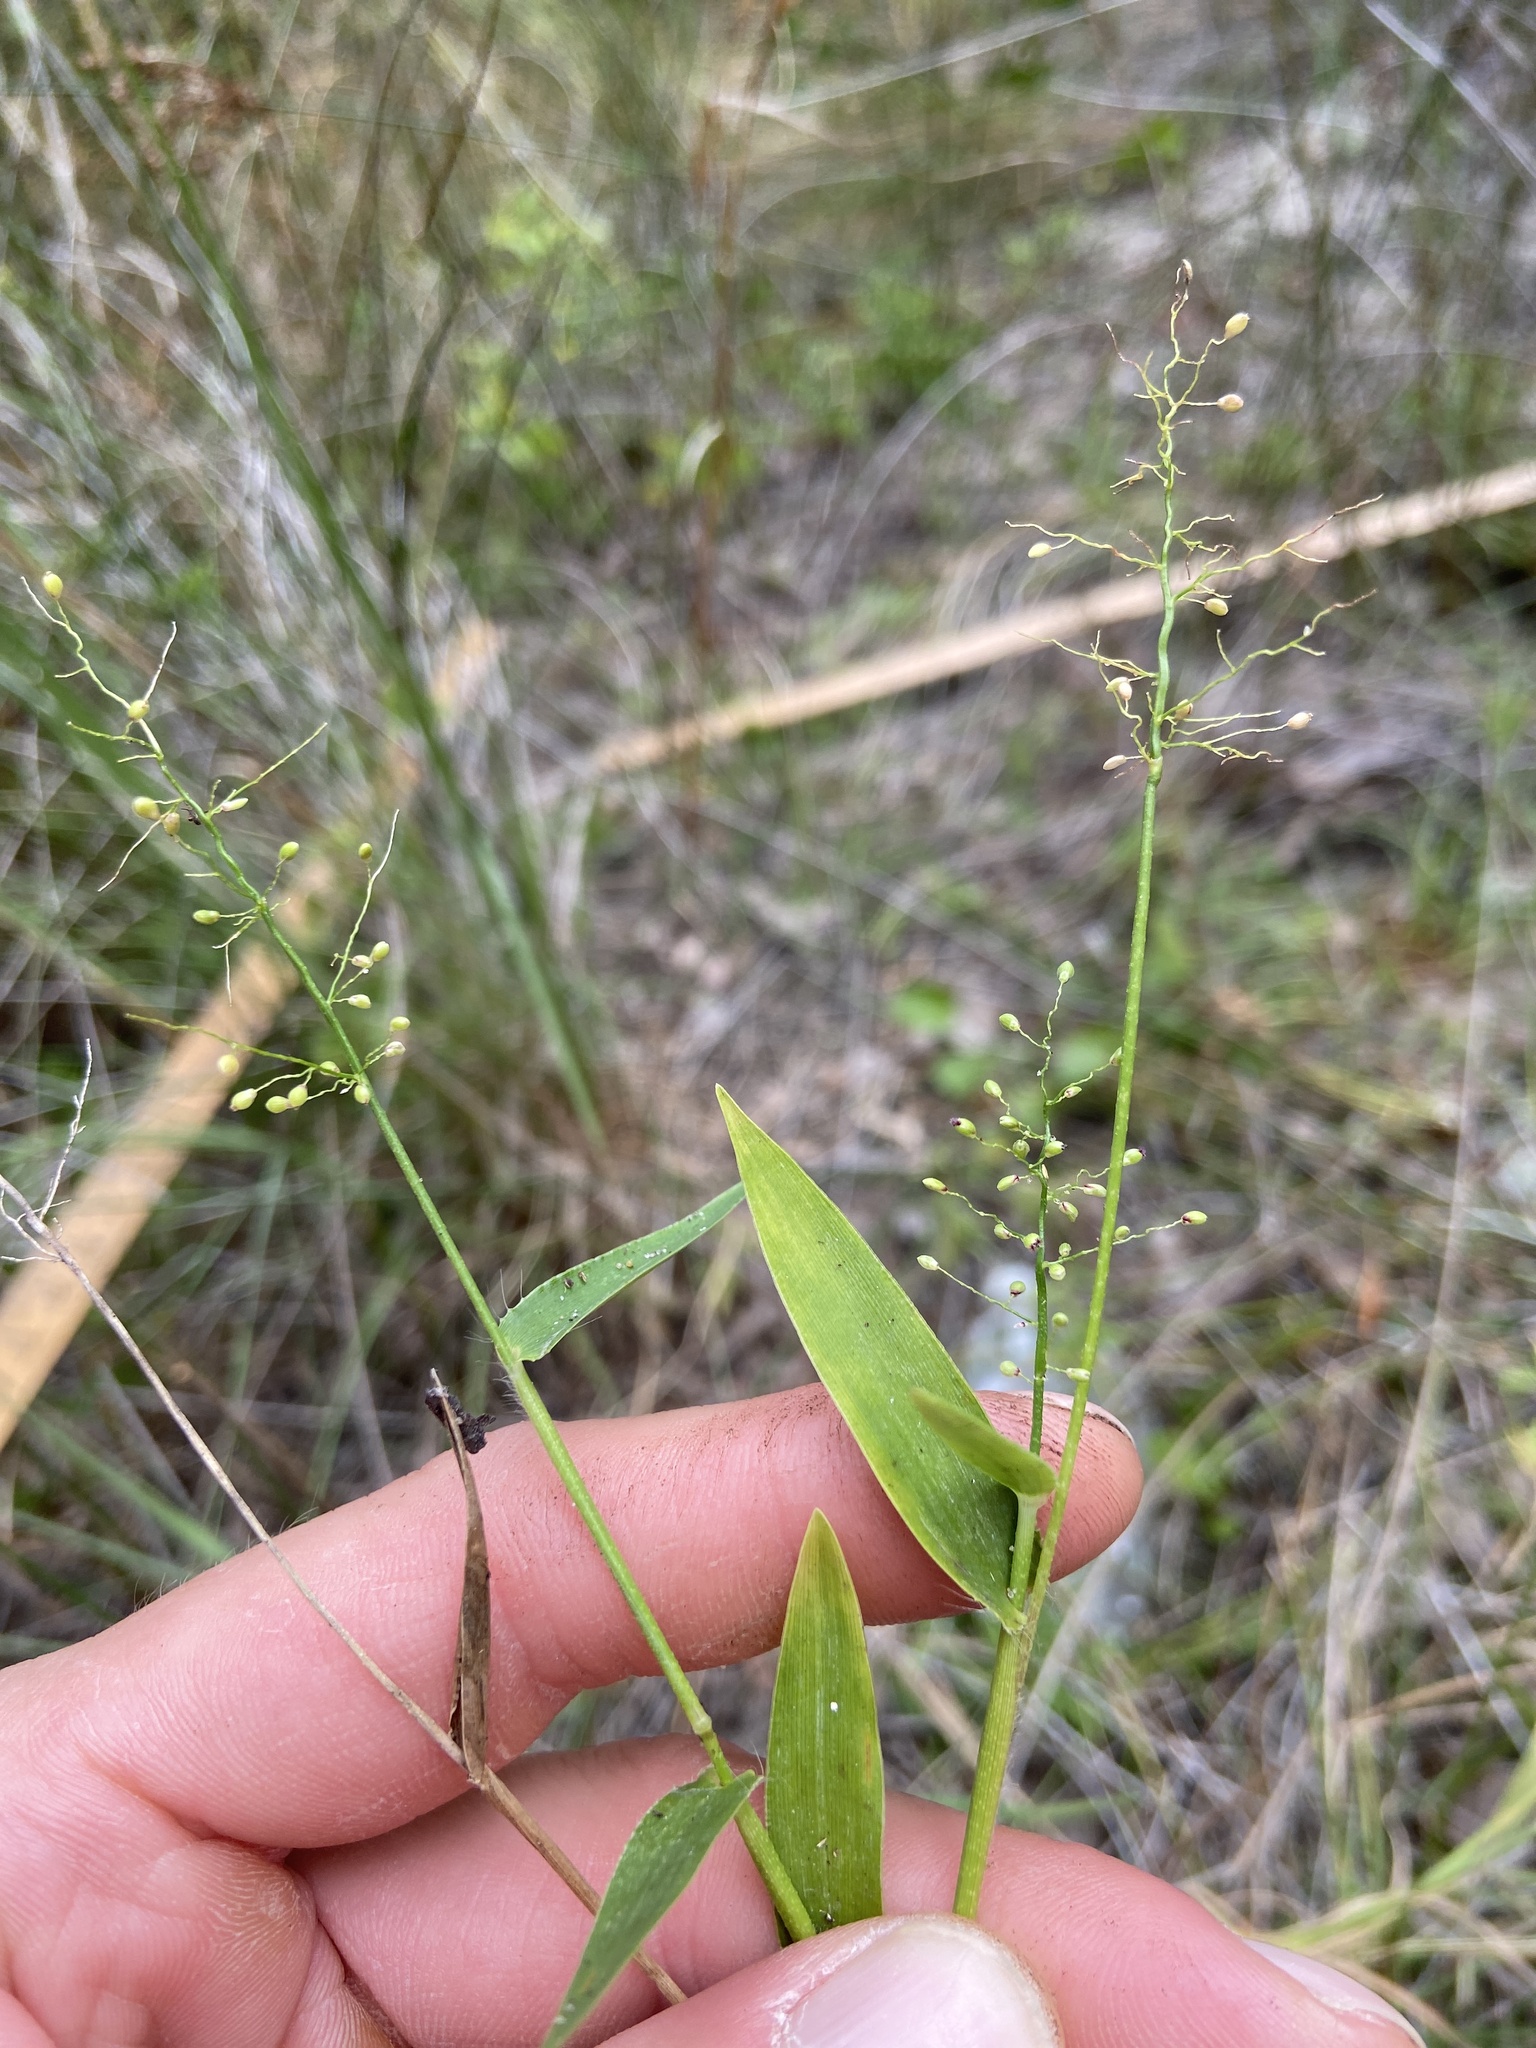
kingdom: Plantae
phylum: Tracheophyta
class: Liliopsida
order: Poales
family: Poaceae
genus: Dichanthelium
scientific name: Dichanthelium tenue
